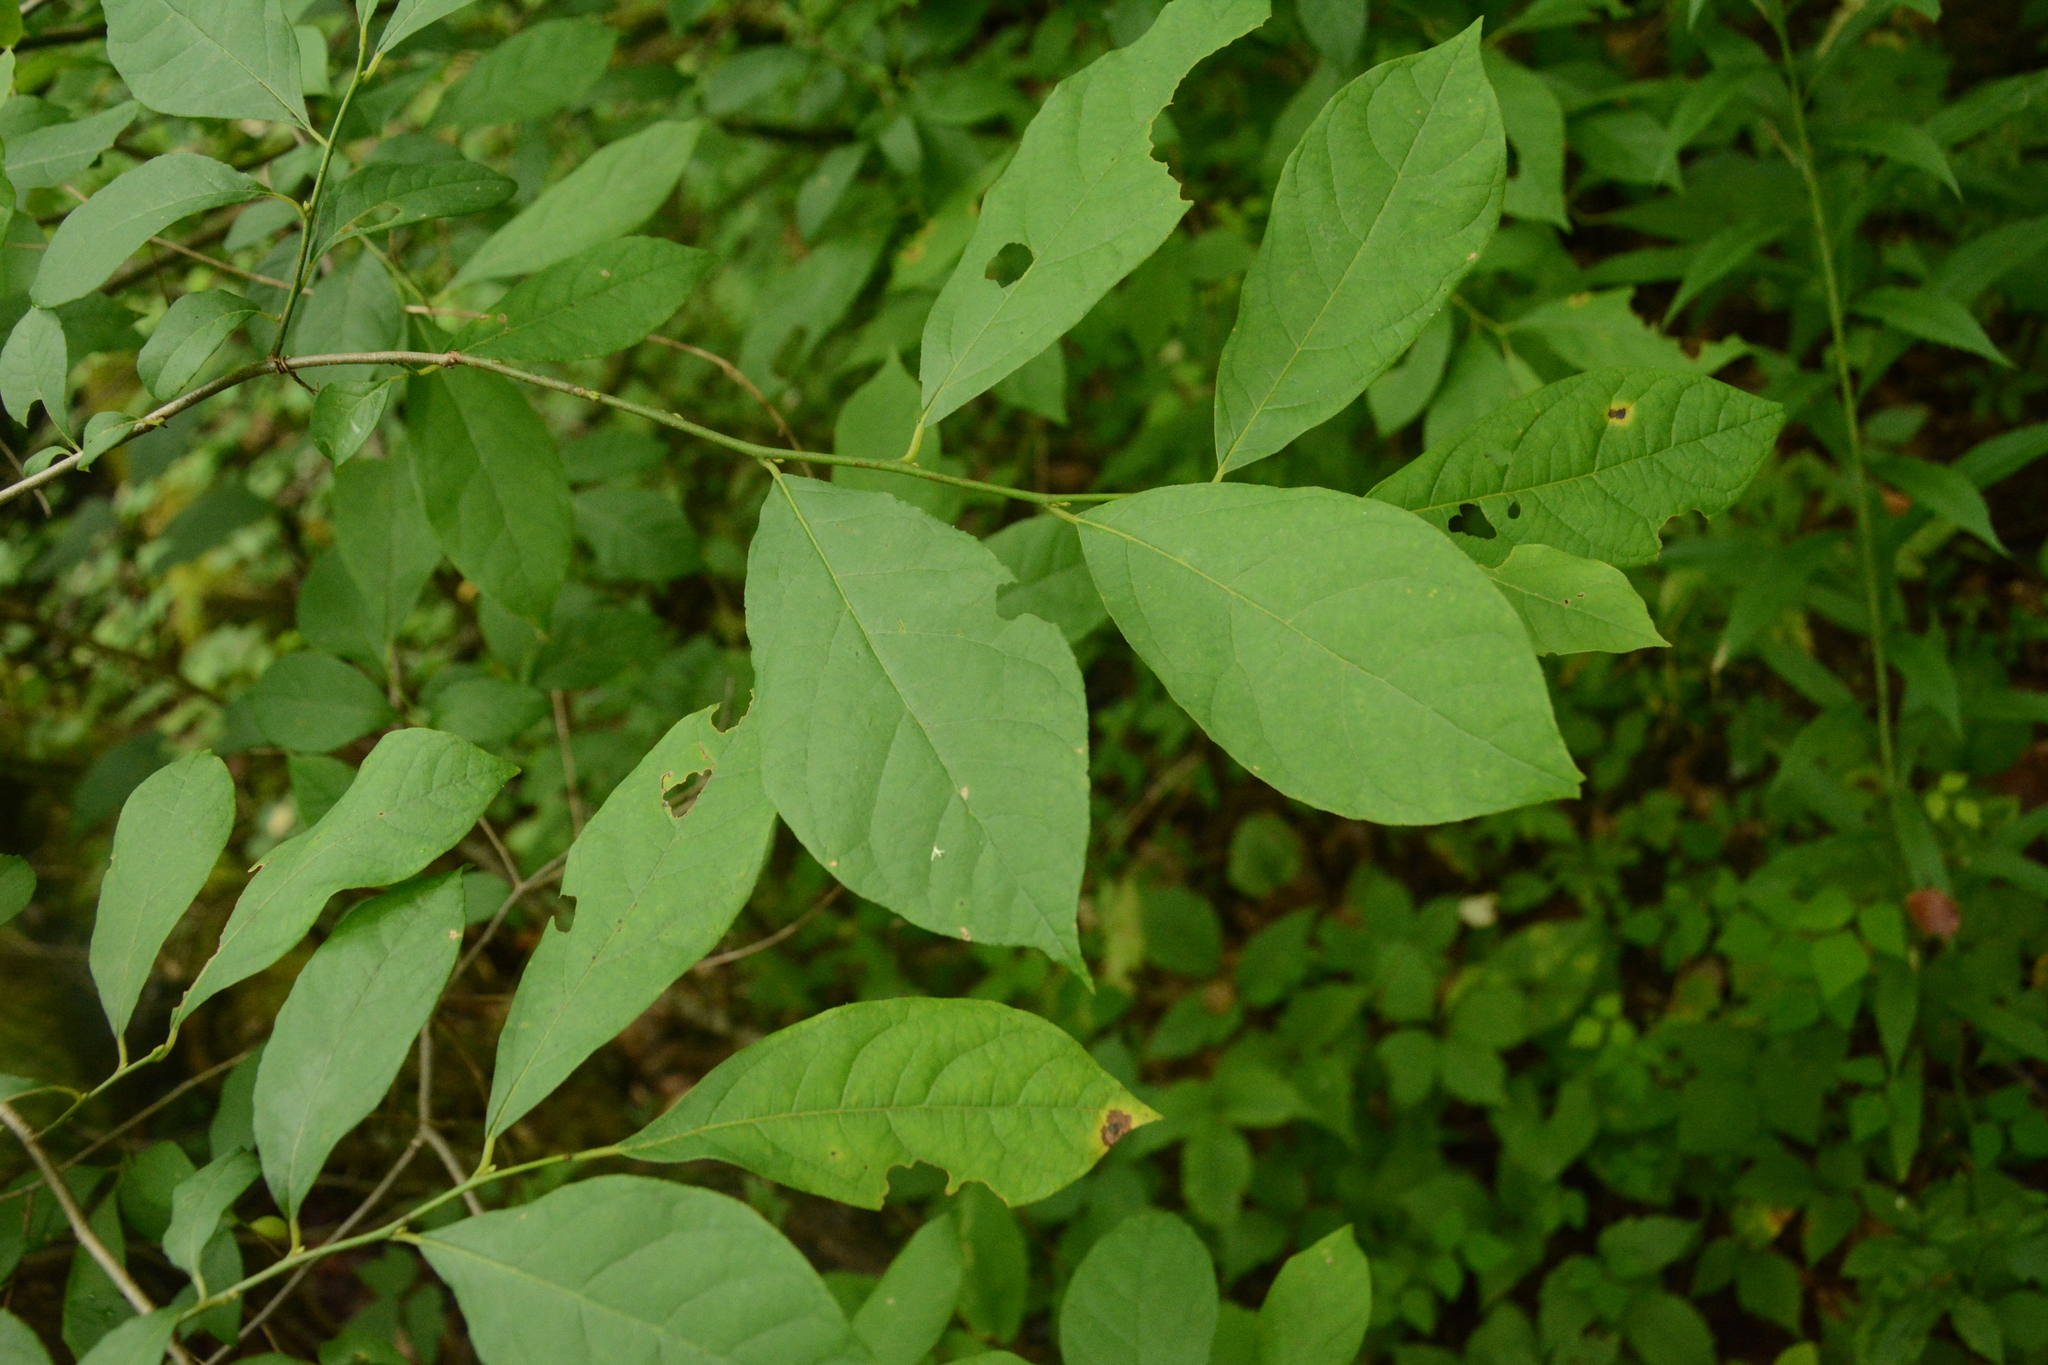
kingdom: Plantae
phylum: Tracheophyta
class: Magnoliopsida
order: Laurales
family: Lauraceae
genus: Lindera
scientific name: Lindera benzoin
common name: Spicebush
